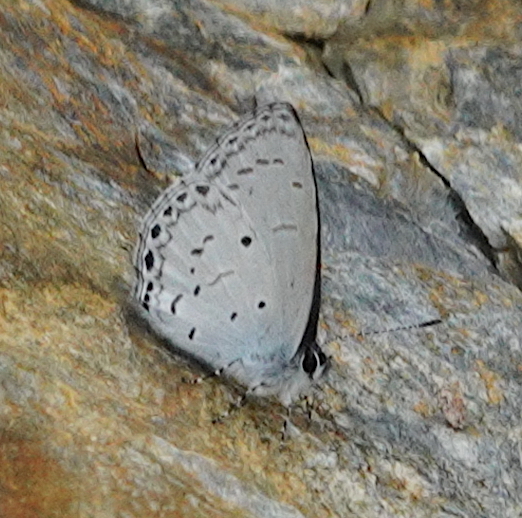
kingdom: Animalia
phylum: Arthropoda
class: Insecta
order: Lepidoptera
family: Lycaenidae
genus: Udara
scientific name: Udara
